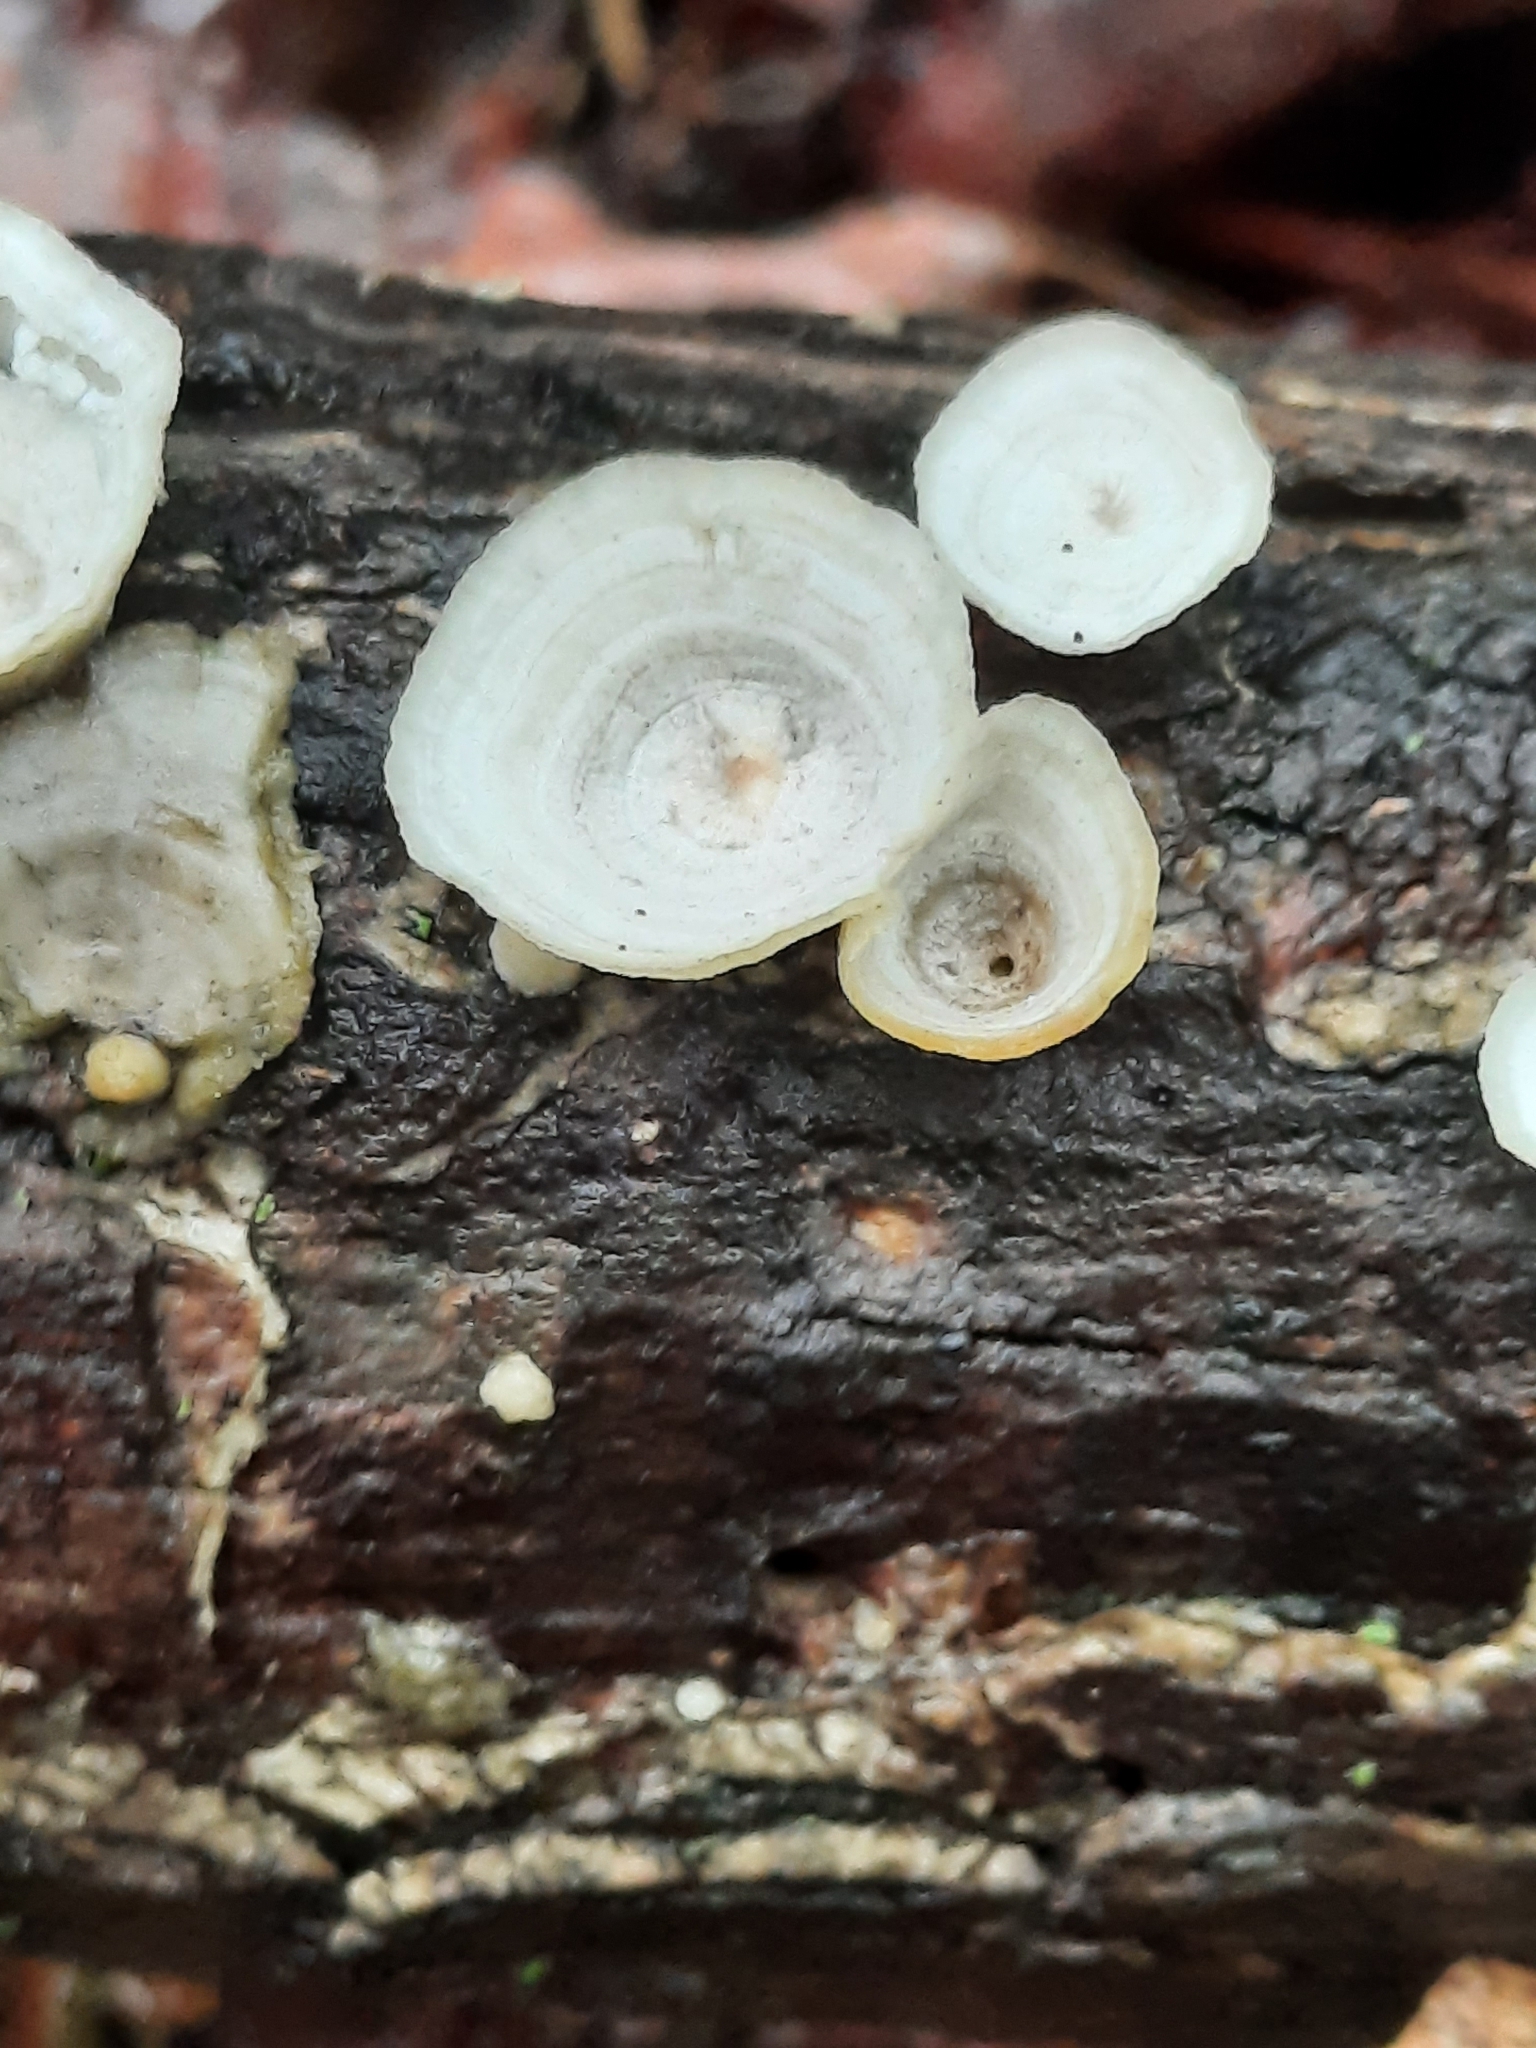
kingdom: Fungi
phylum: Basidiomycota
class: Agaricomycetes
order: Polyporales
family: Polyporaceae
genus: Poronidulus
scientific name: Poronidulus conchifer
